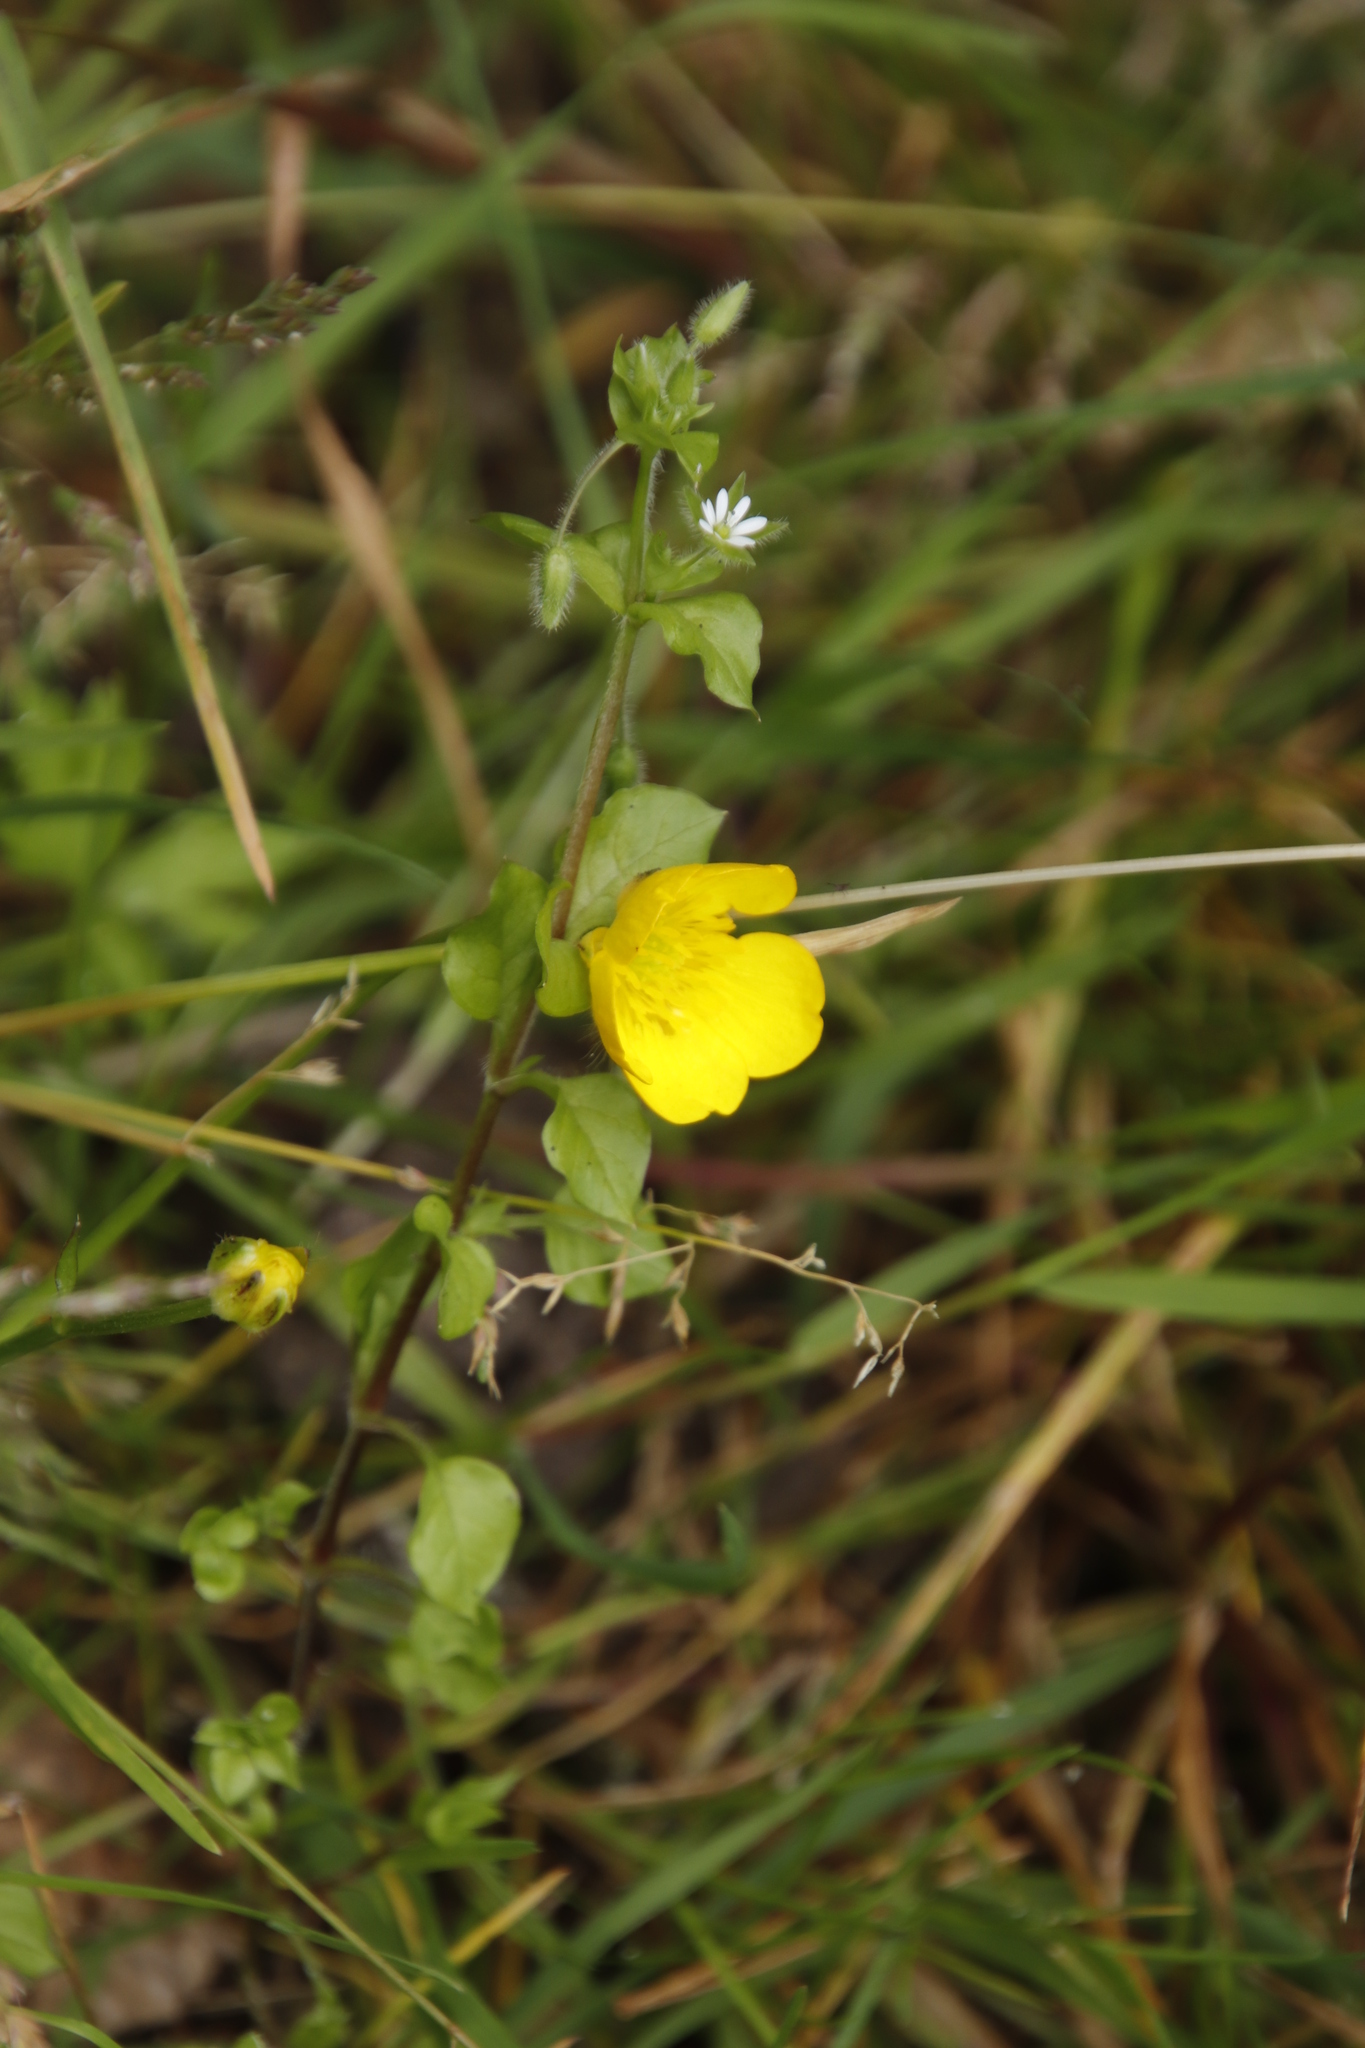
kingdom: Plantae
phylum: Tracheophyta
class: Magnoliopsida
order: Caryophyllales
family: Caryophyllaceae
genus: Stellaria
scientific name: Stellaria media
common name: Common chickweed
